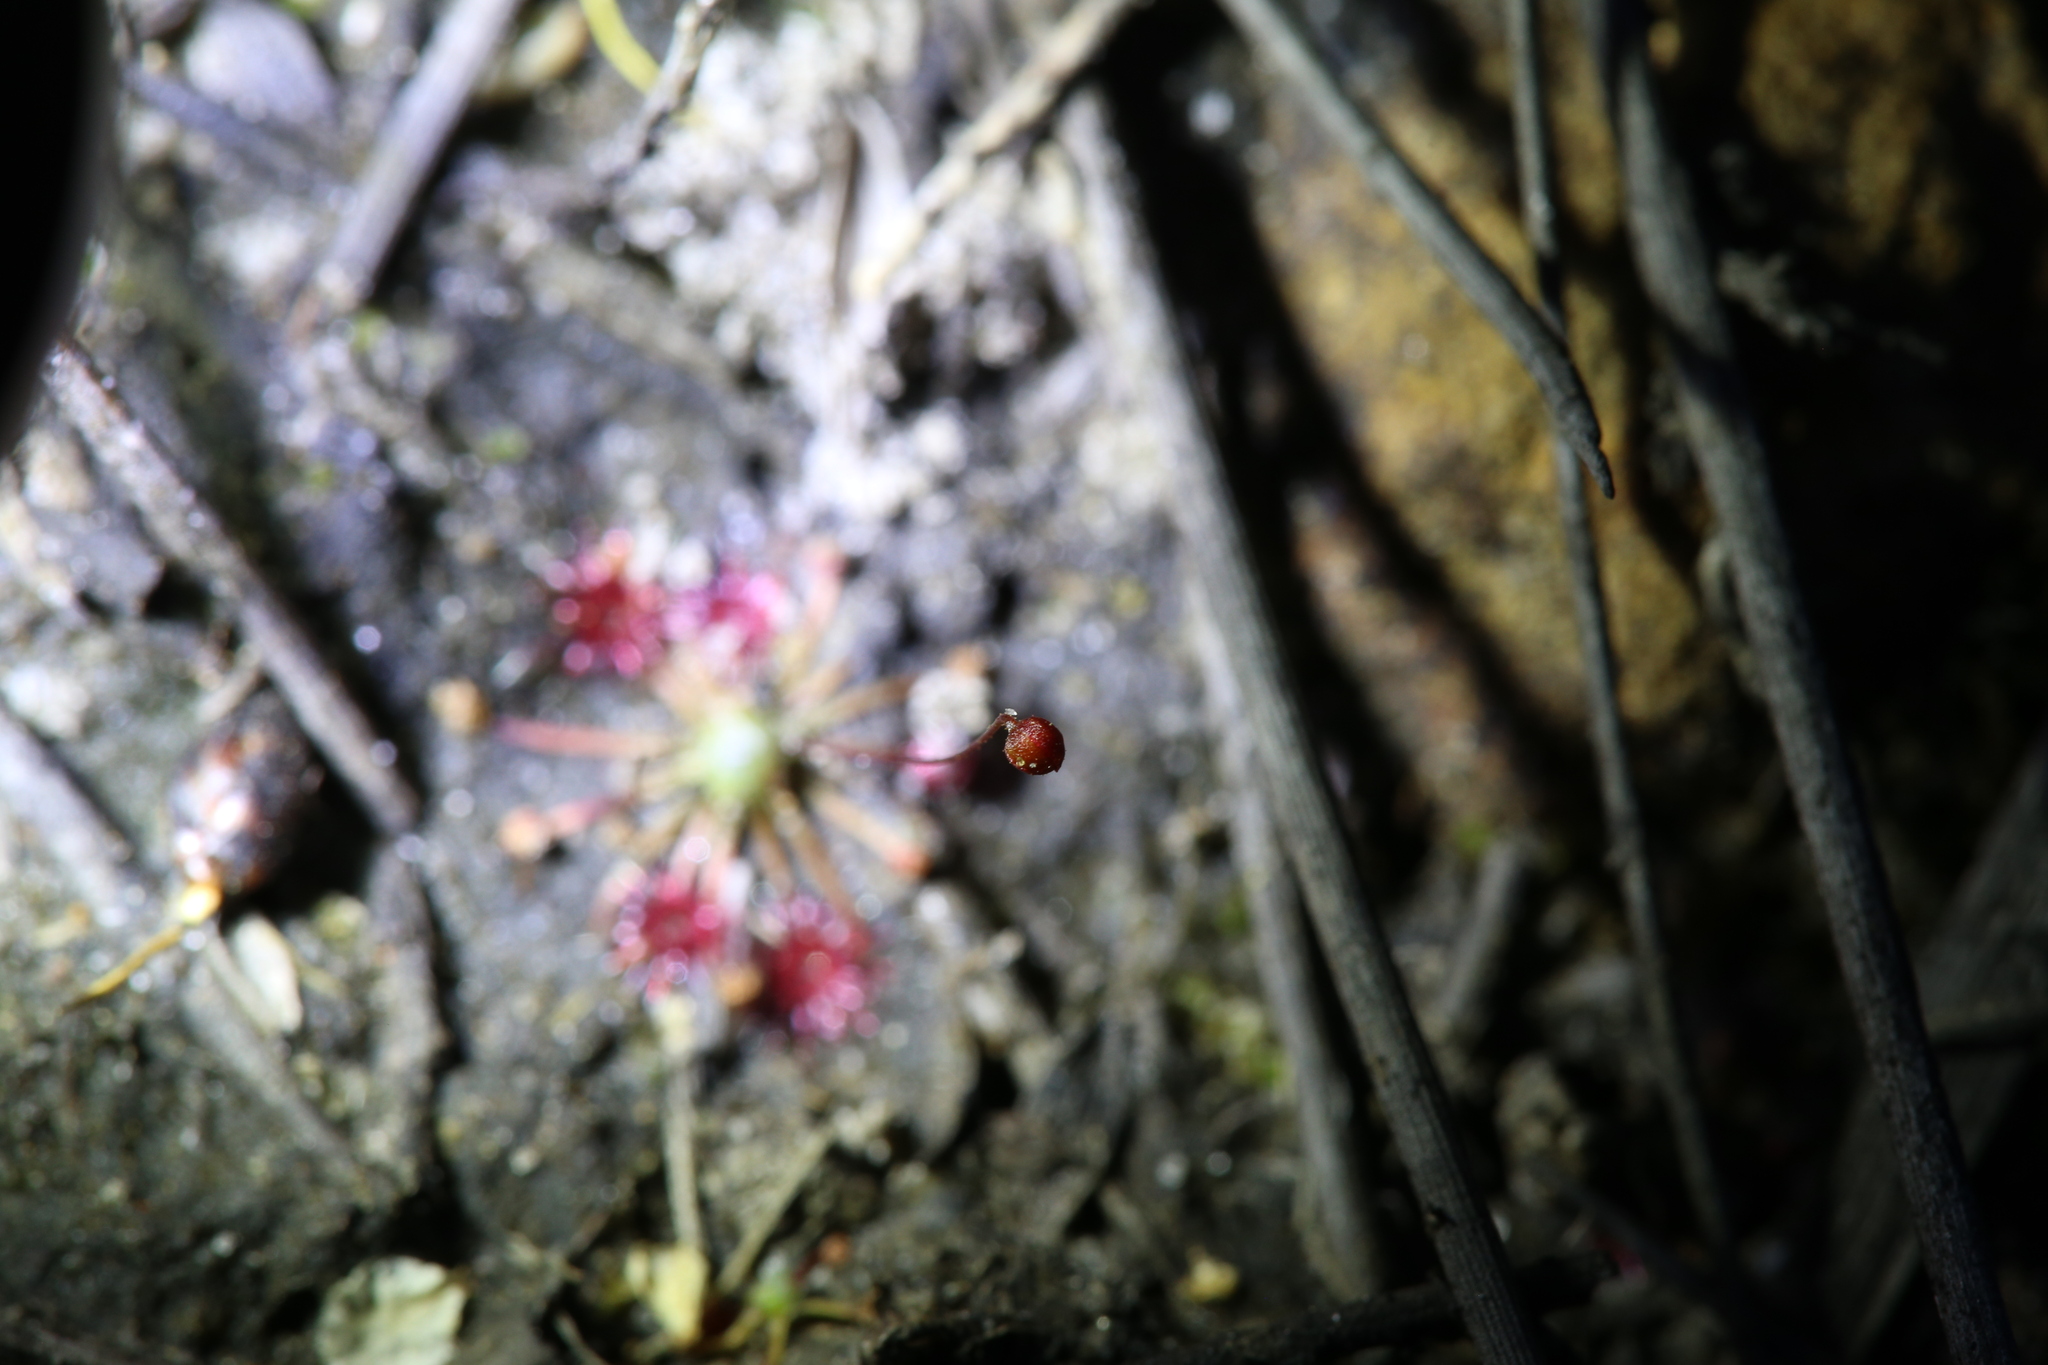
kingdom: Plantae
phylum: Tracheophyta
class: Magnoliopsida
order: Caryophyllales
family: Droseraceae
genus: Drosera
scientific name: Drosera pygmaea
